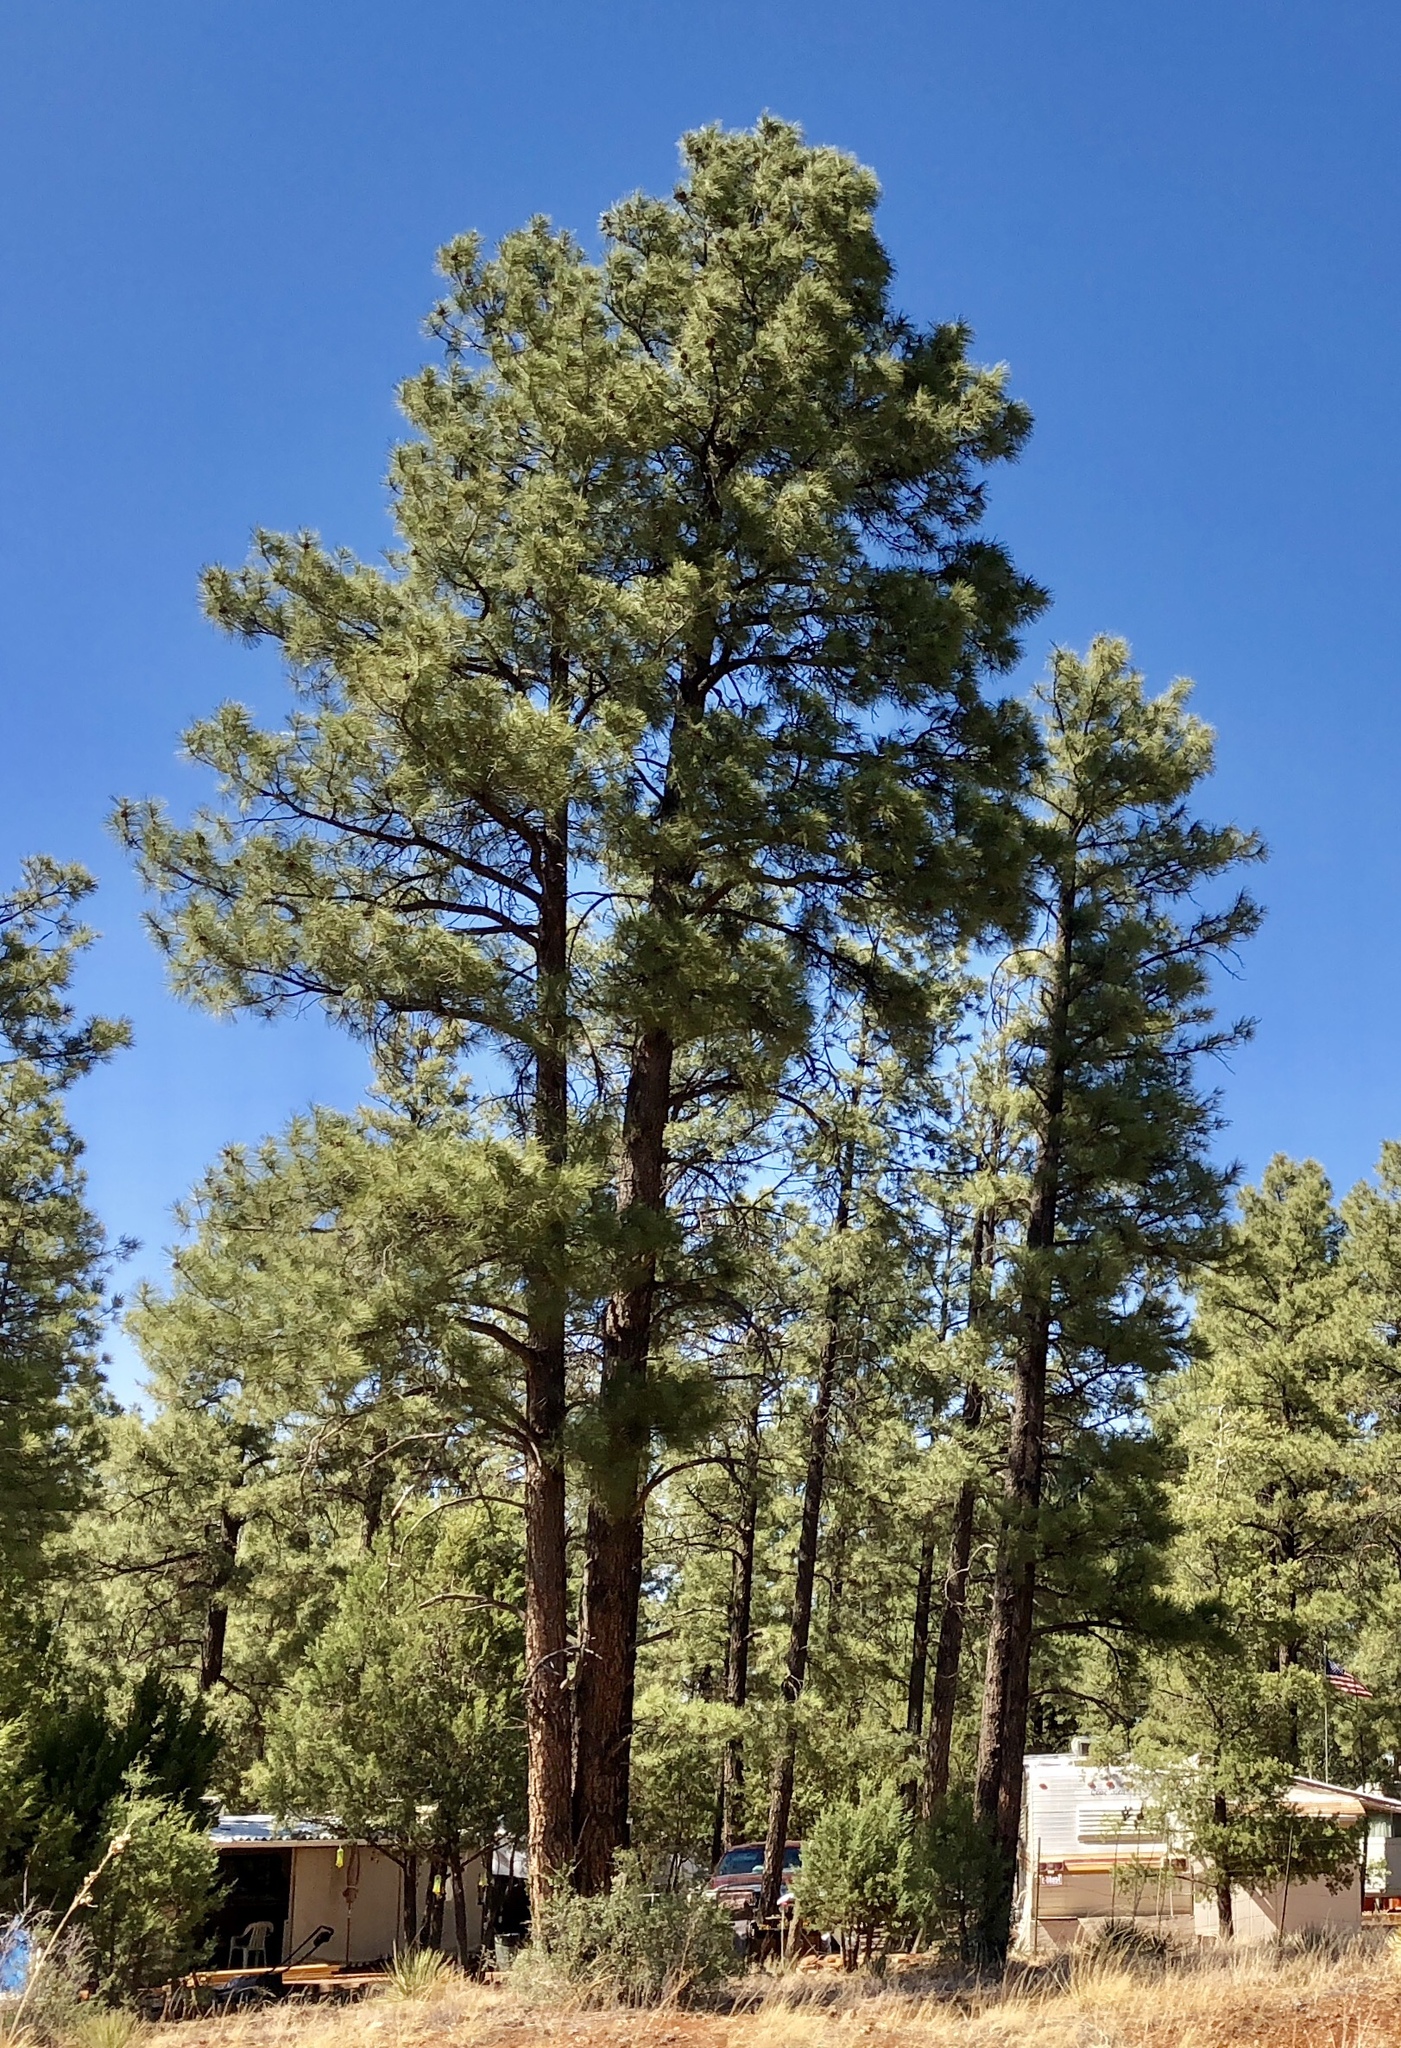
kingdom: Plantae
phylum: Tracheophyta
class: Pinopsida
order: Pinales
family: Pinaceae
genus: Pinus
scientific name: Pinus ponderosa
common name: Western yellow-pine
